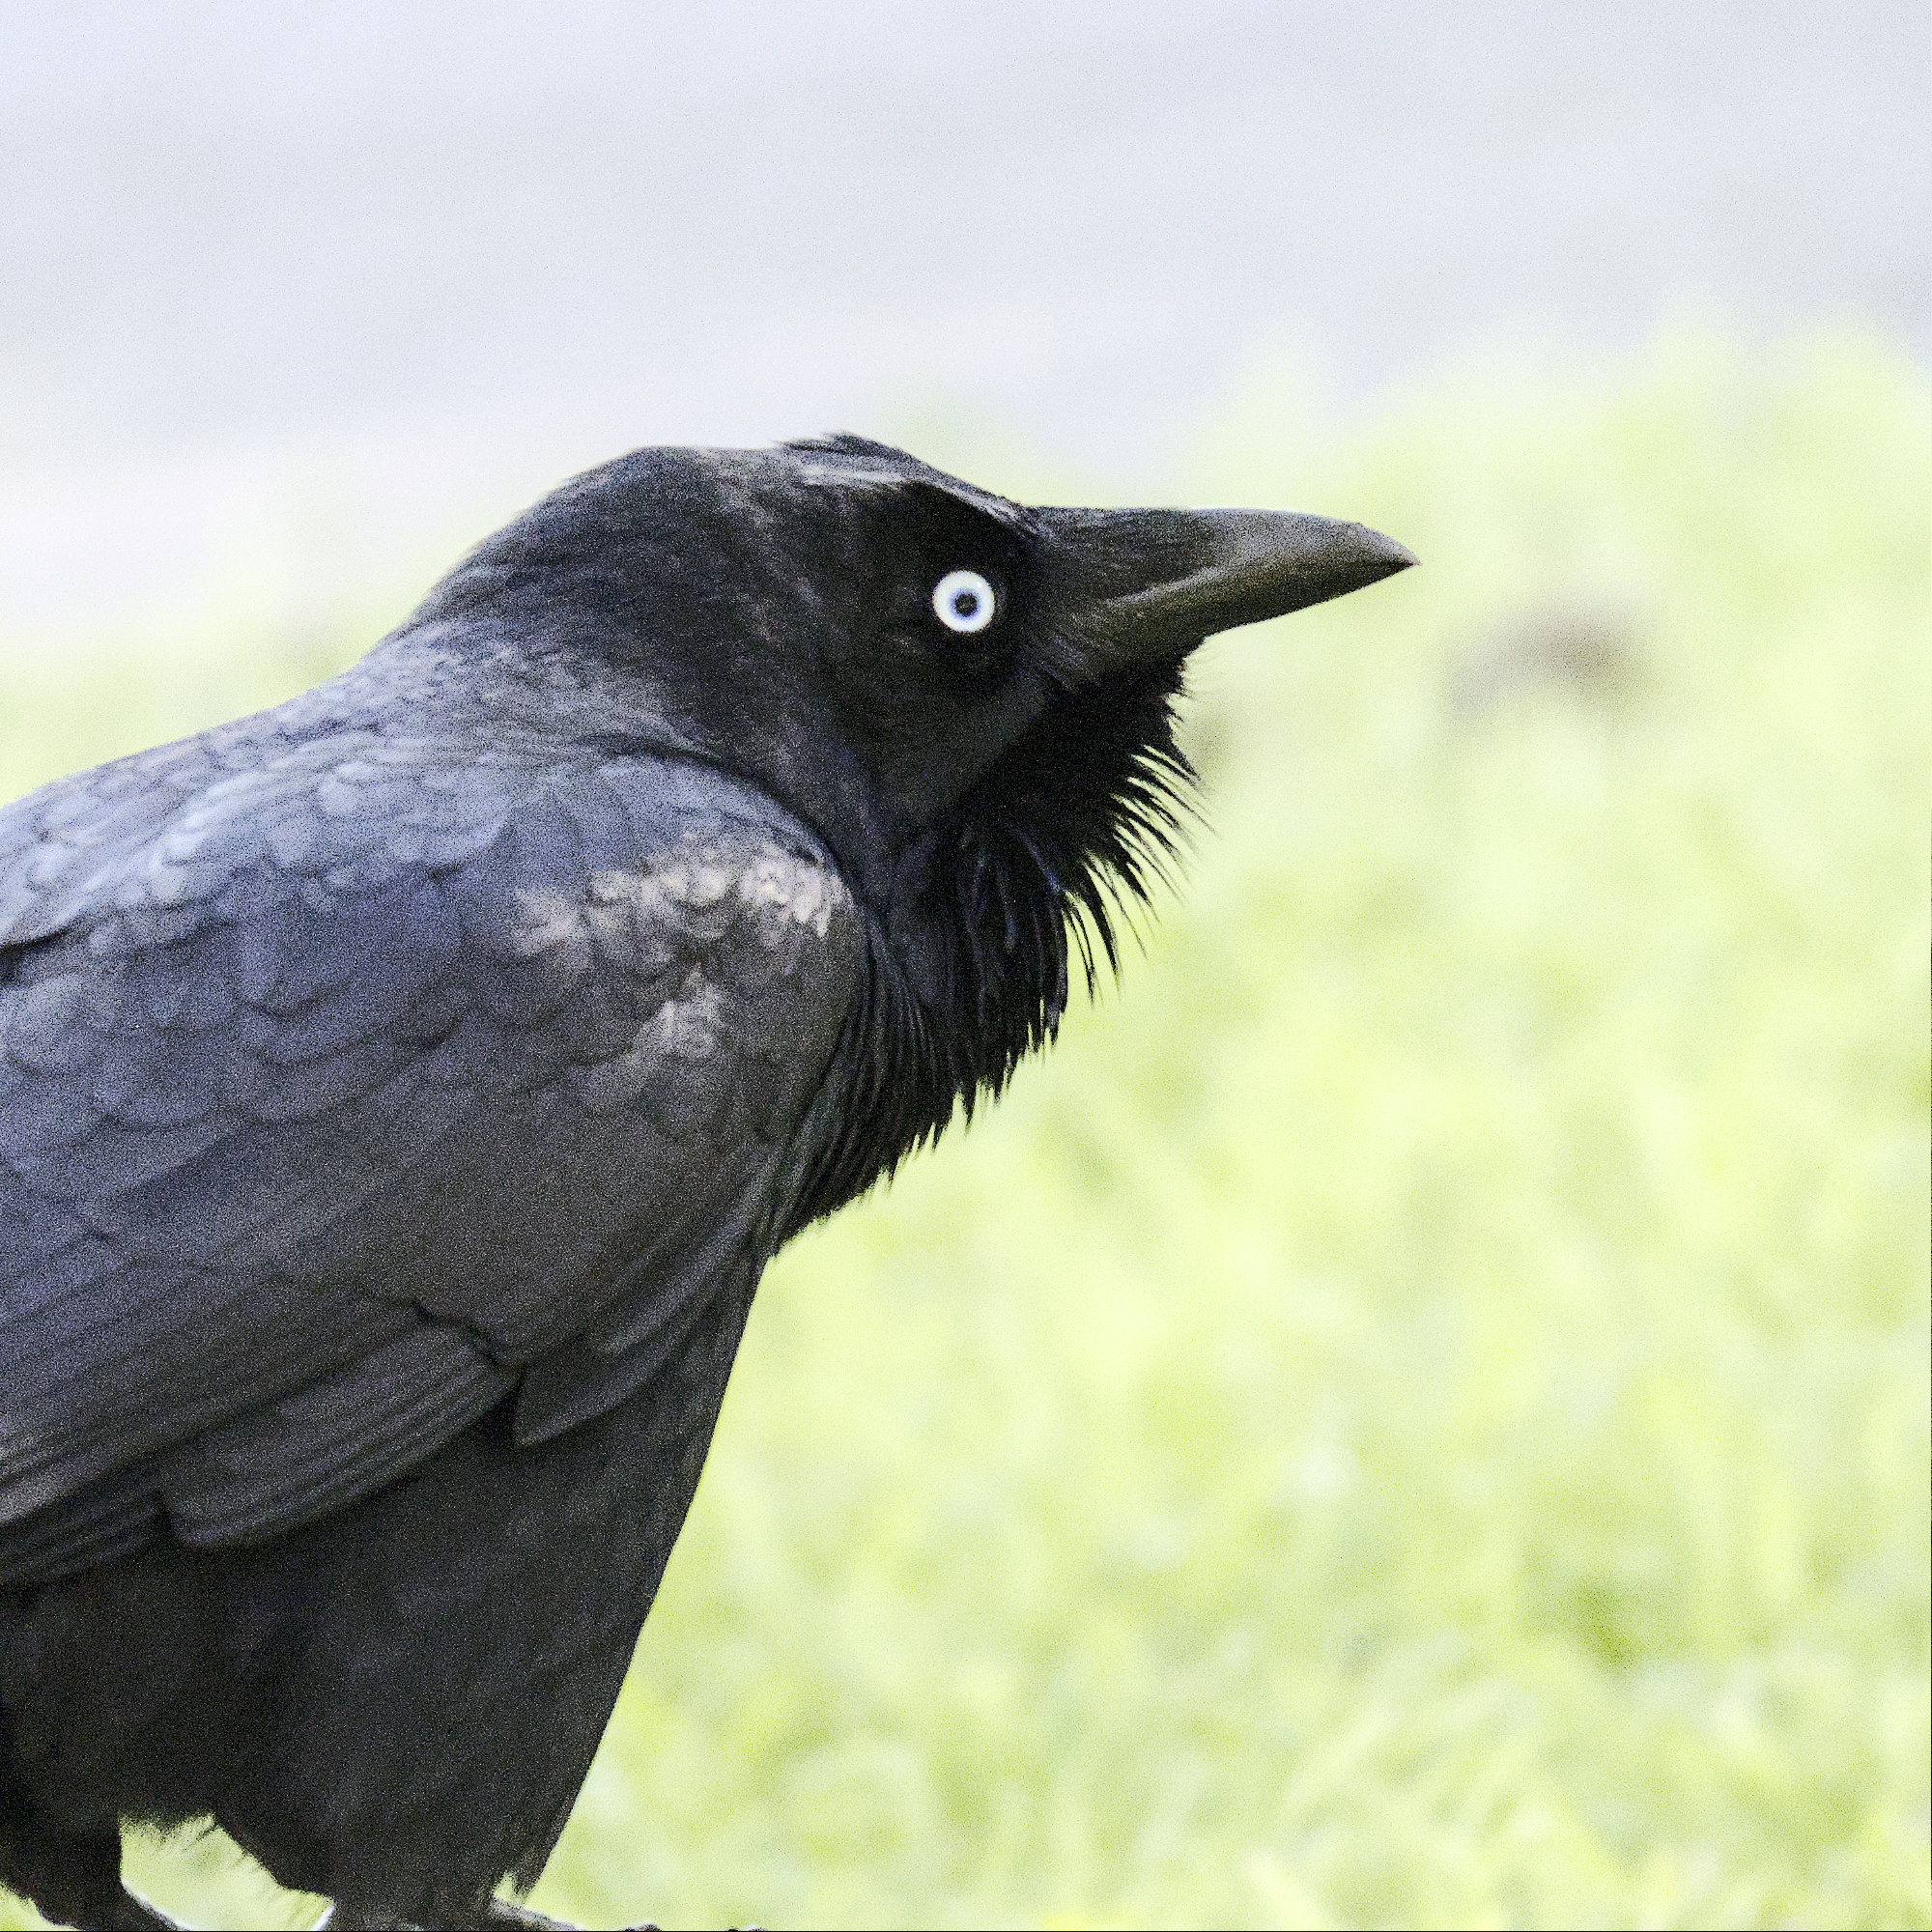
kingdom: Animalia
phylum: Chordata
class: Aves
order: Passeriformes
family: Corvidae
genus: Corvus
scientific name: Corvus mellori
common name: Little raven
